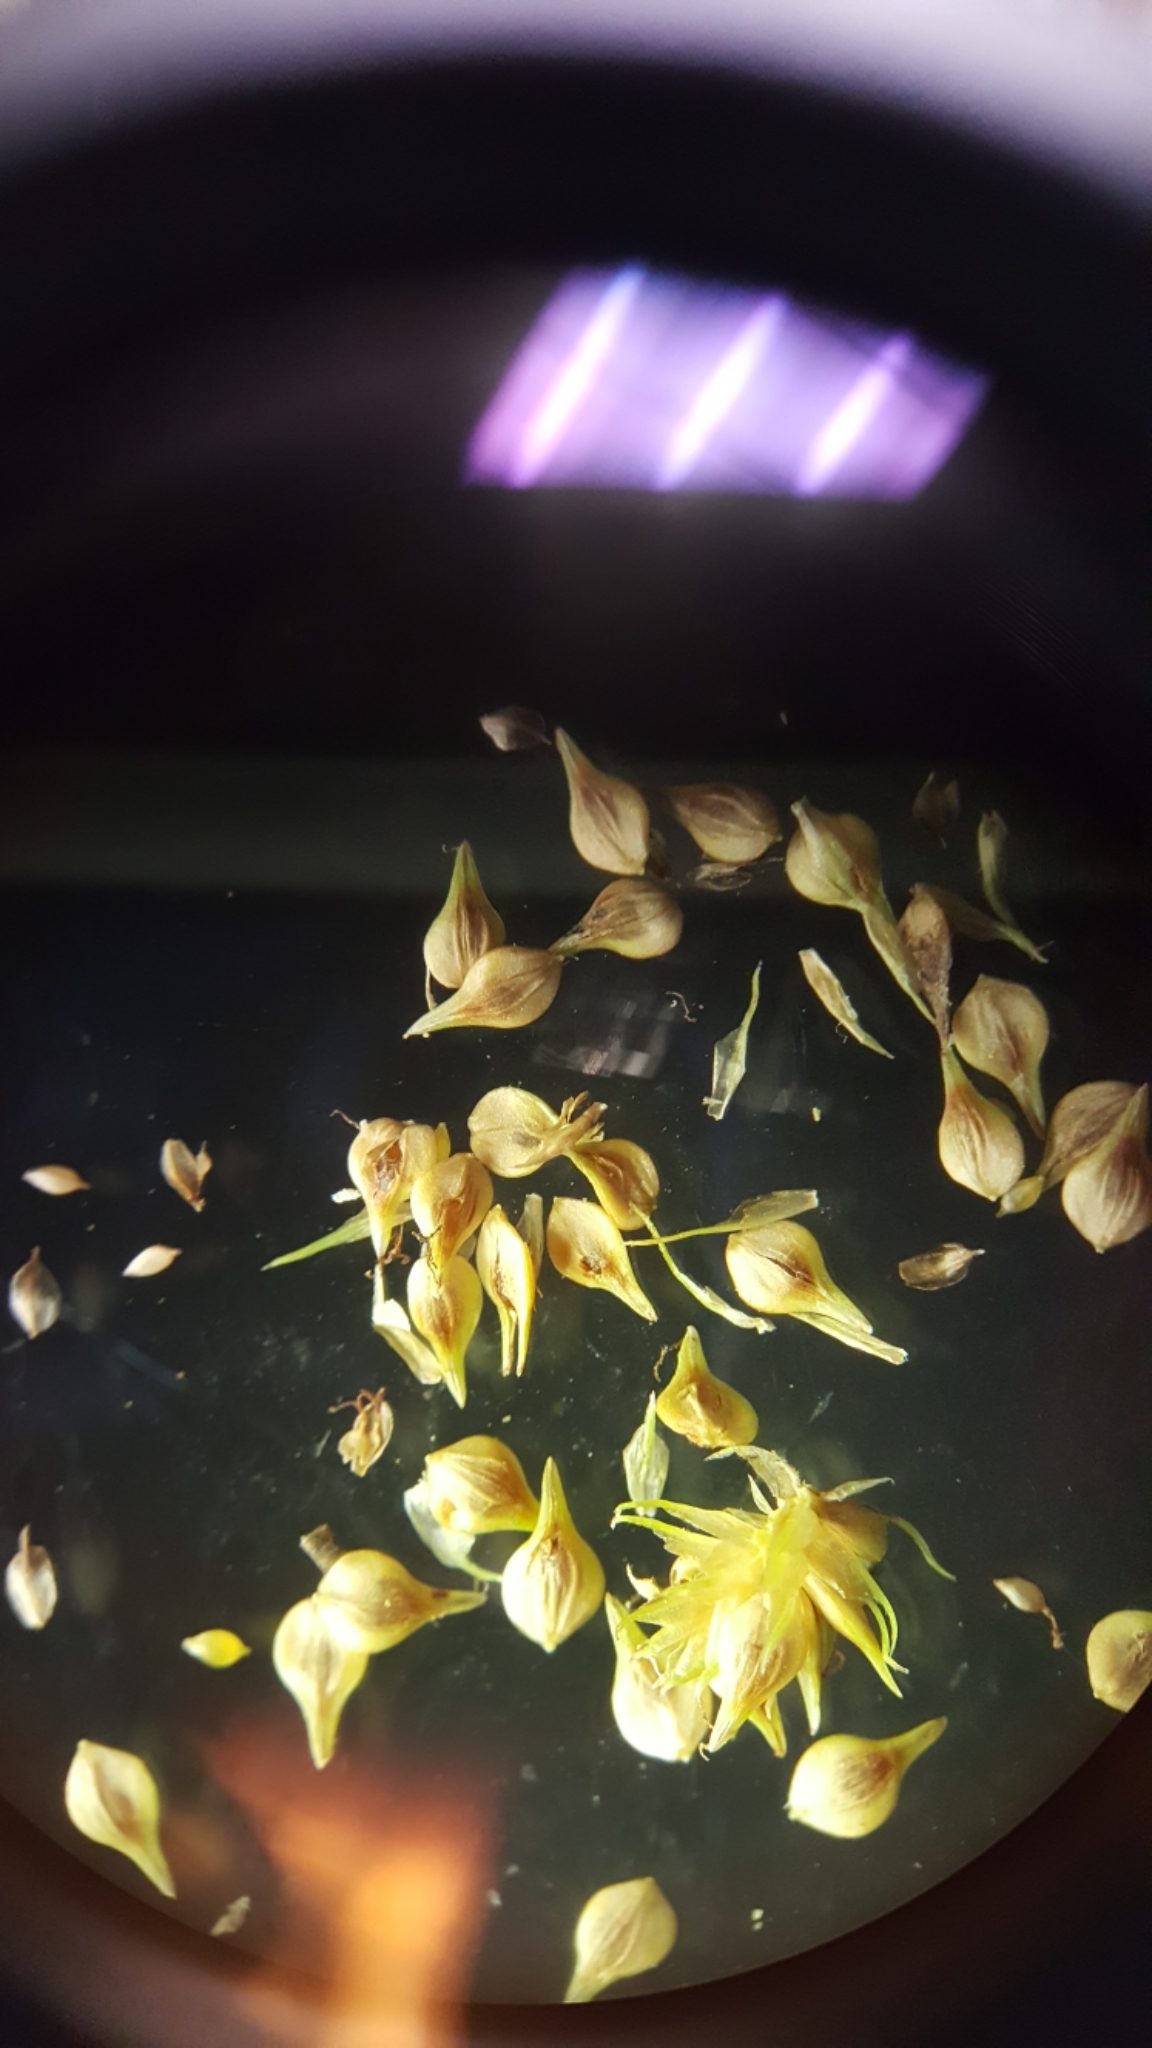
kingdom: Plantae
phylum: Tracheophyta
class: Liliopsida
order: Poales
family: Cyperaceae
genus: Carex
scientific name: Carex vulpinoidea
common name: American fox-sedge
